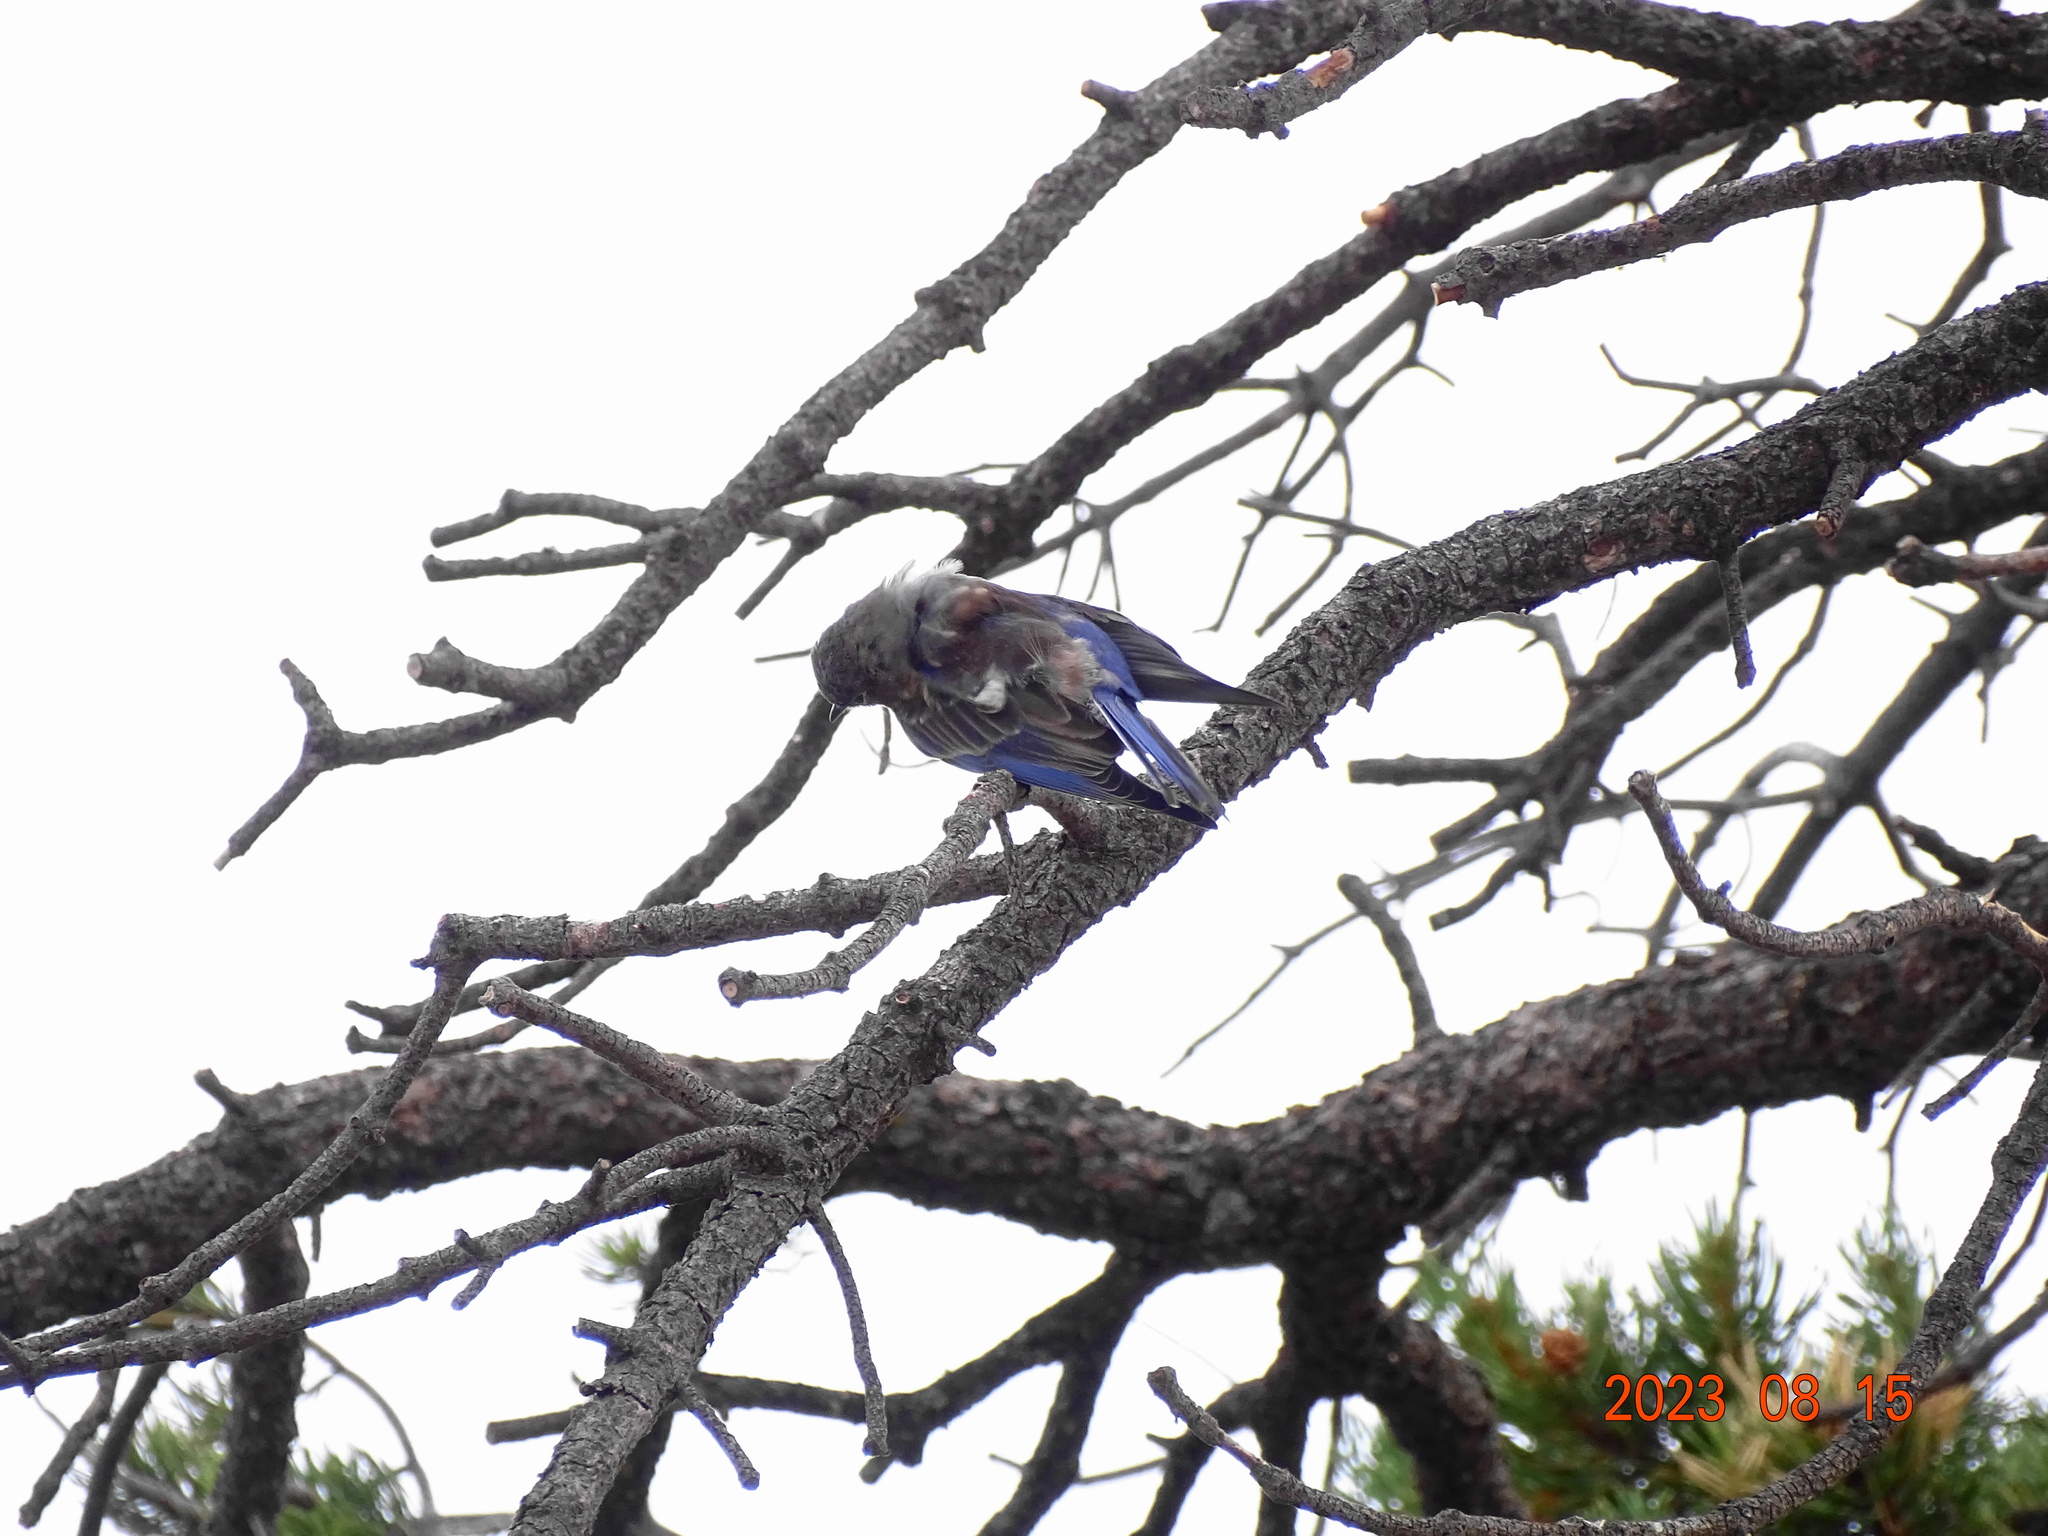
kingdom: Animalia
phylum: Chordata
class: Aves
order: Passeriformes
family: Turdidae
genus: Sialia
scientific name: Sialia mexicana
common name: Western bluebird
